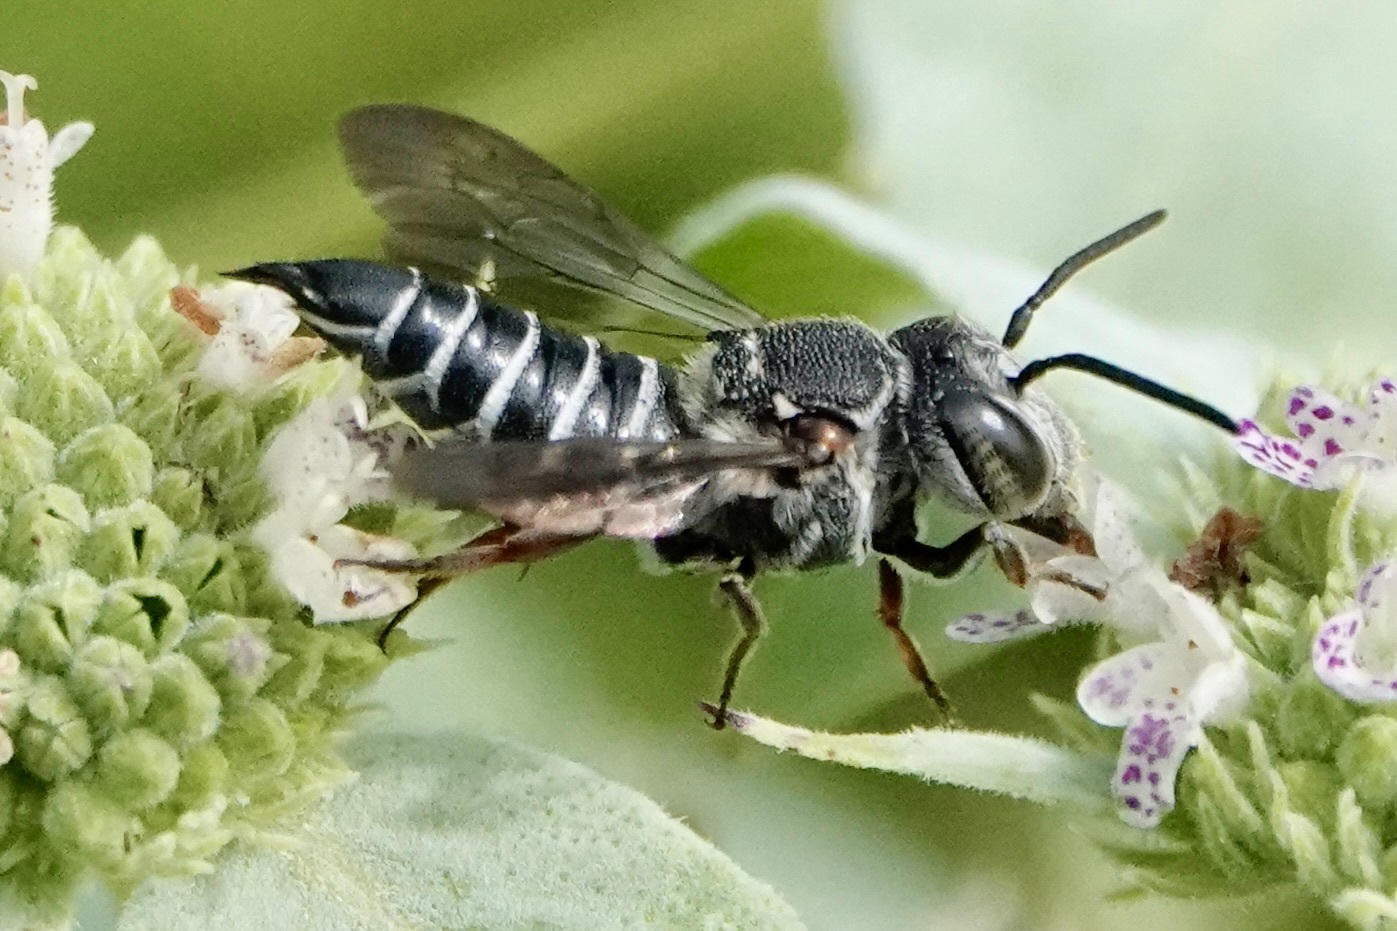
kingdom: Animalia
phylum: Arthropoda
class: Insecta
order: Hymenoptera
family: Megachilidae
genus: Coelioxys
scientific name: Coelioxys sayi
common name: Say's cuckoo leaf-cutter bee
